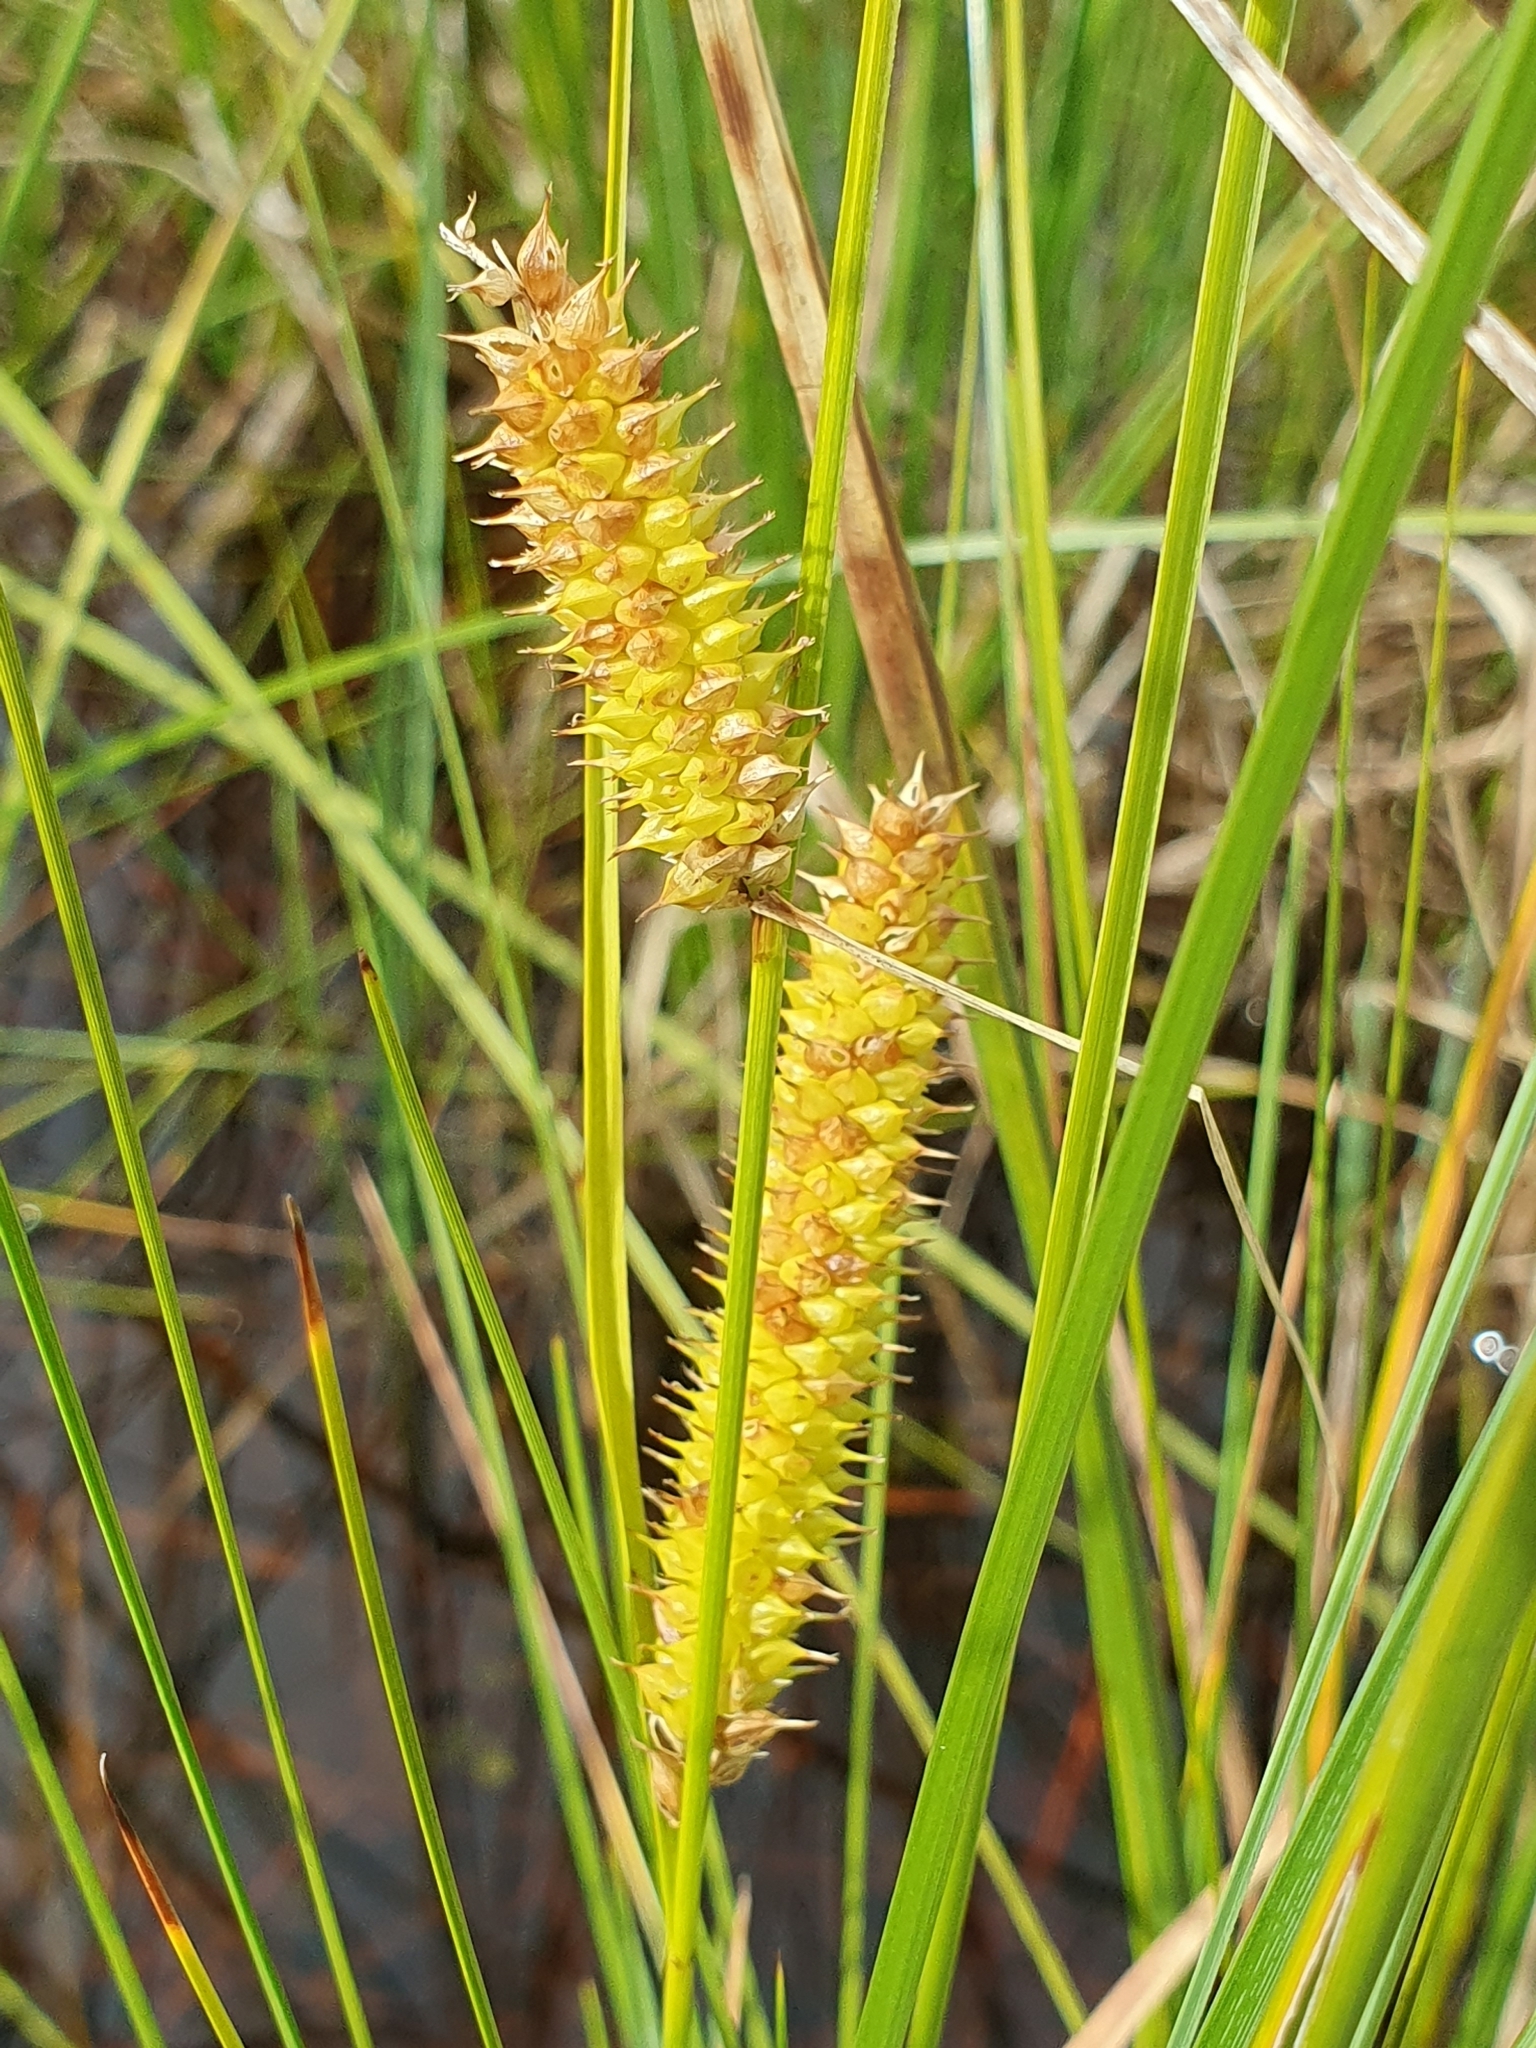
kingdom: Plantae
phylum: Tracheophyta
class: Liliopsida
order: Poales
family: Cyperaceae
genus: Carex
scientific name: Carex rostrata
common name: Bottle sedge
